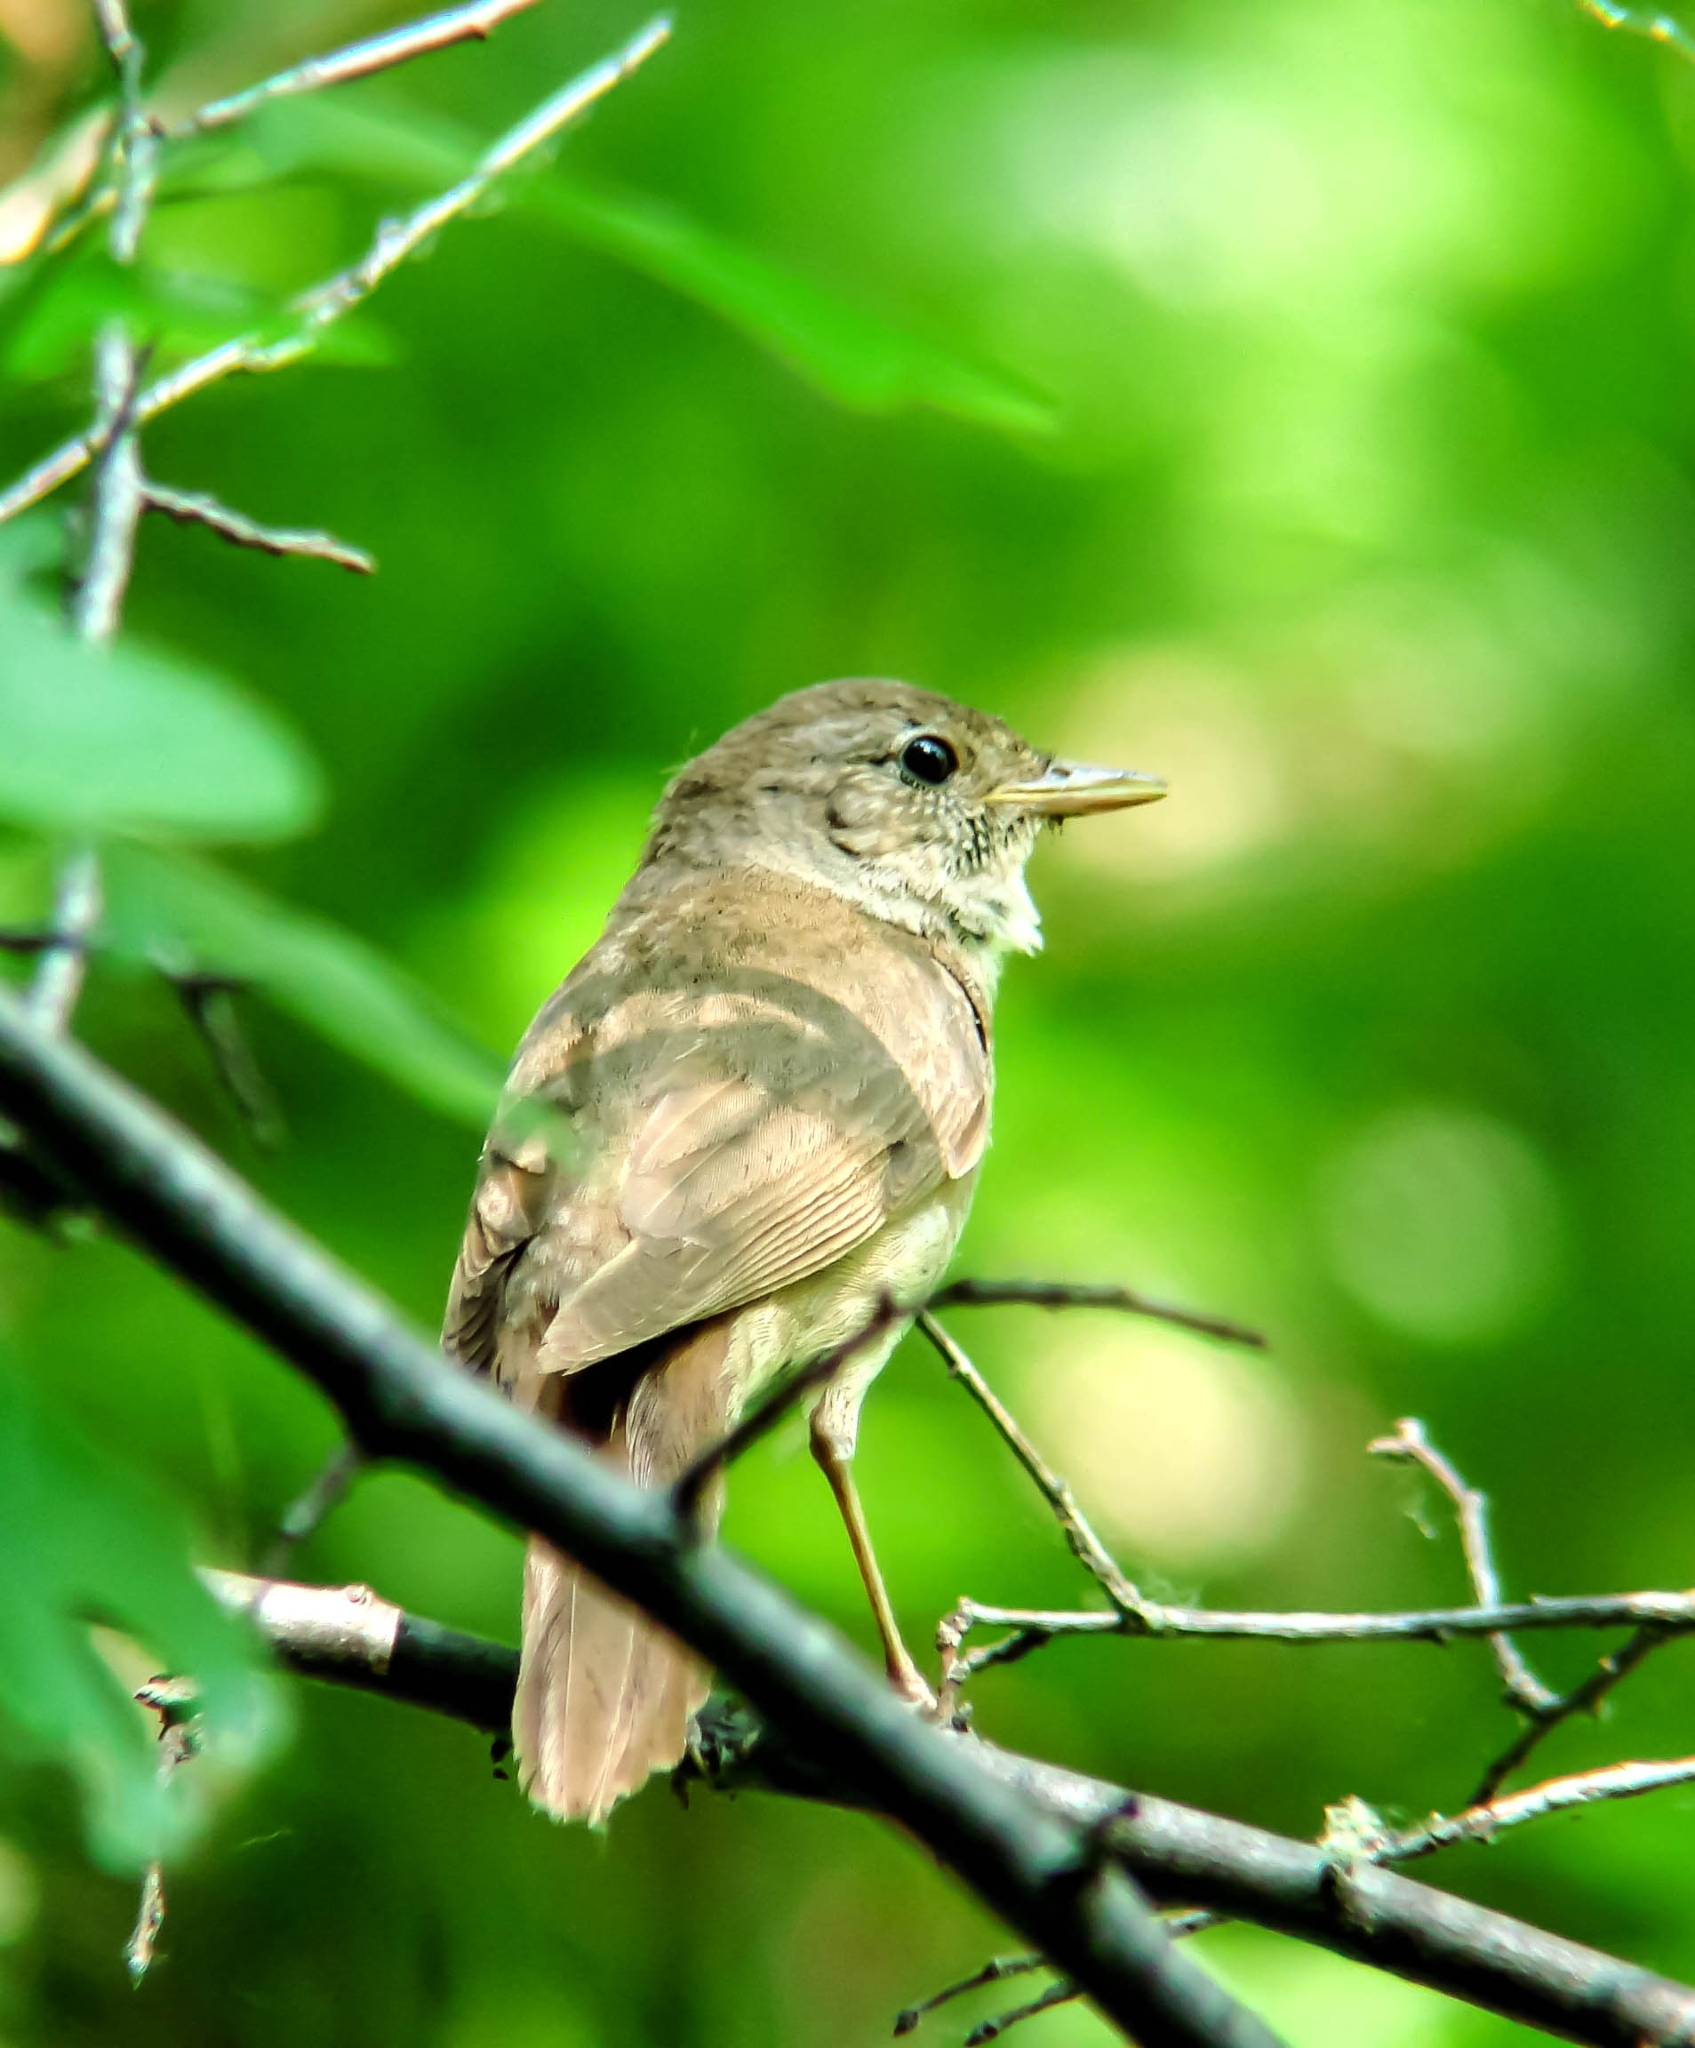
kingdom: Animalia
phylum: Chordata
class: Aves
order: Passeriformes
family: Muscicapidae
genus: Luscinia
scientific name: Luscinia luscinia
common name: Thrush nightingale
